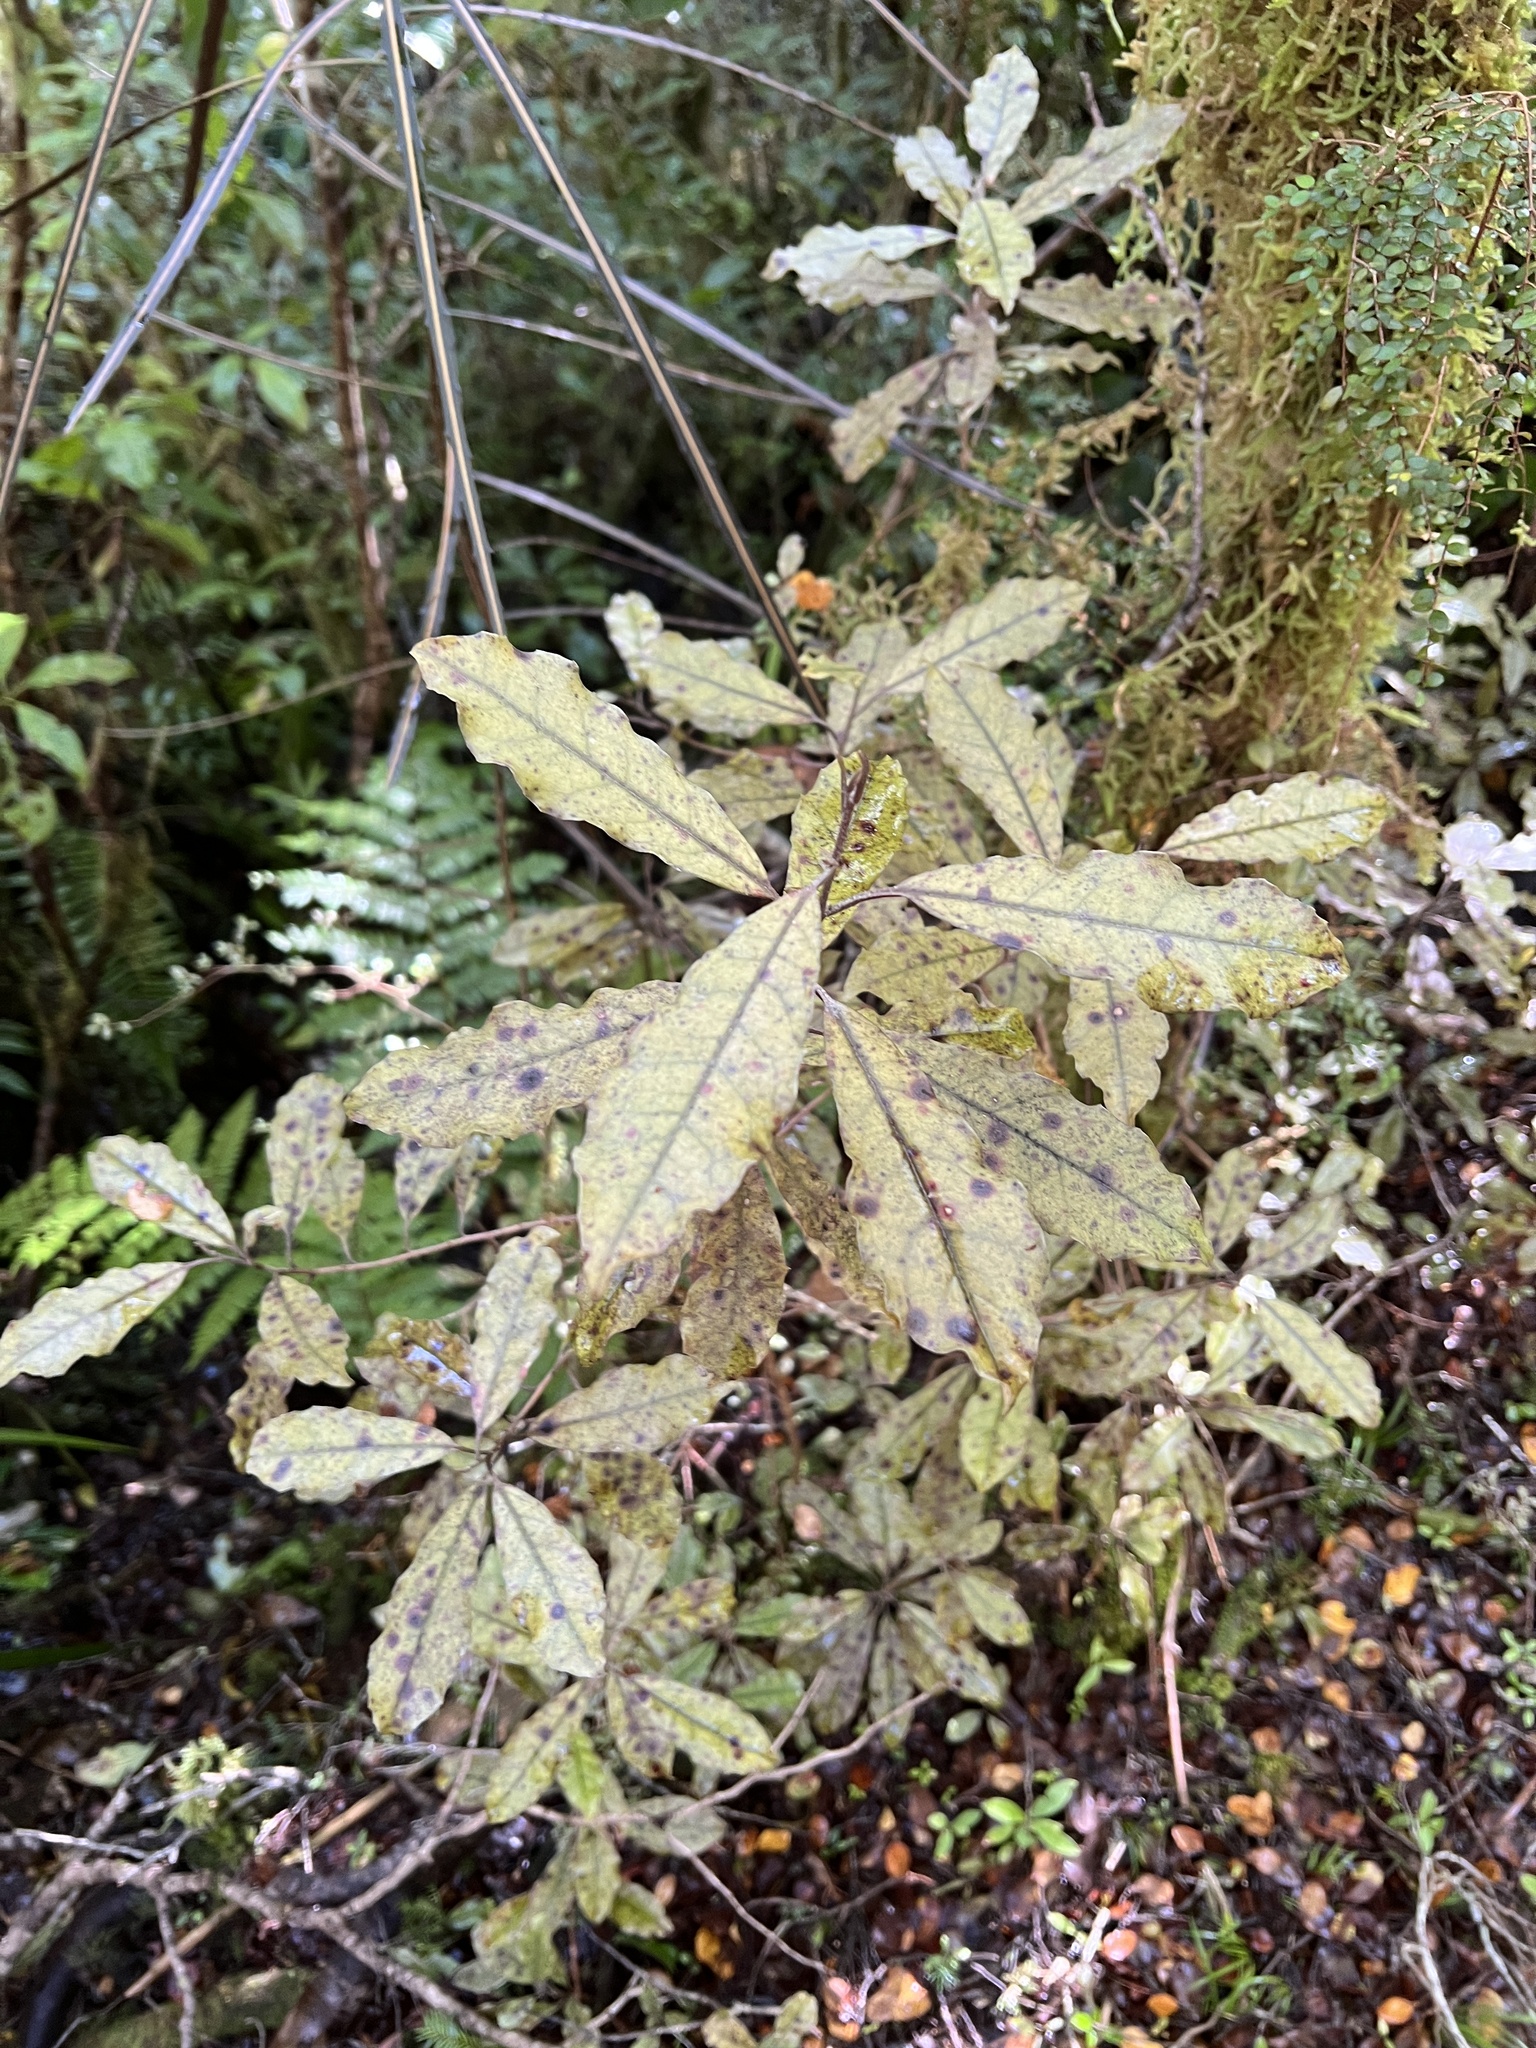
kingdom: Plantae
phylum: Tracheophyta
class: Magnoliopsida
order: Paracryphiales
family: Paracryphiaceae
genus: Quintinia
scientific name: Quintinia serrata
